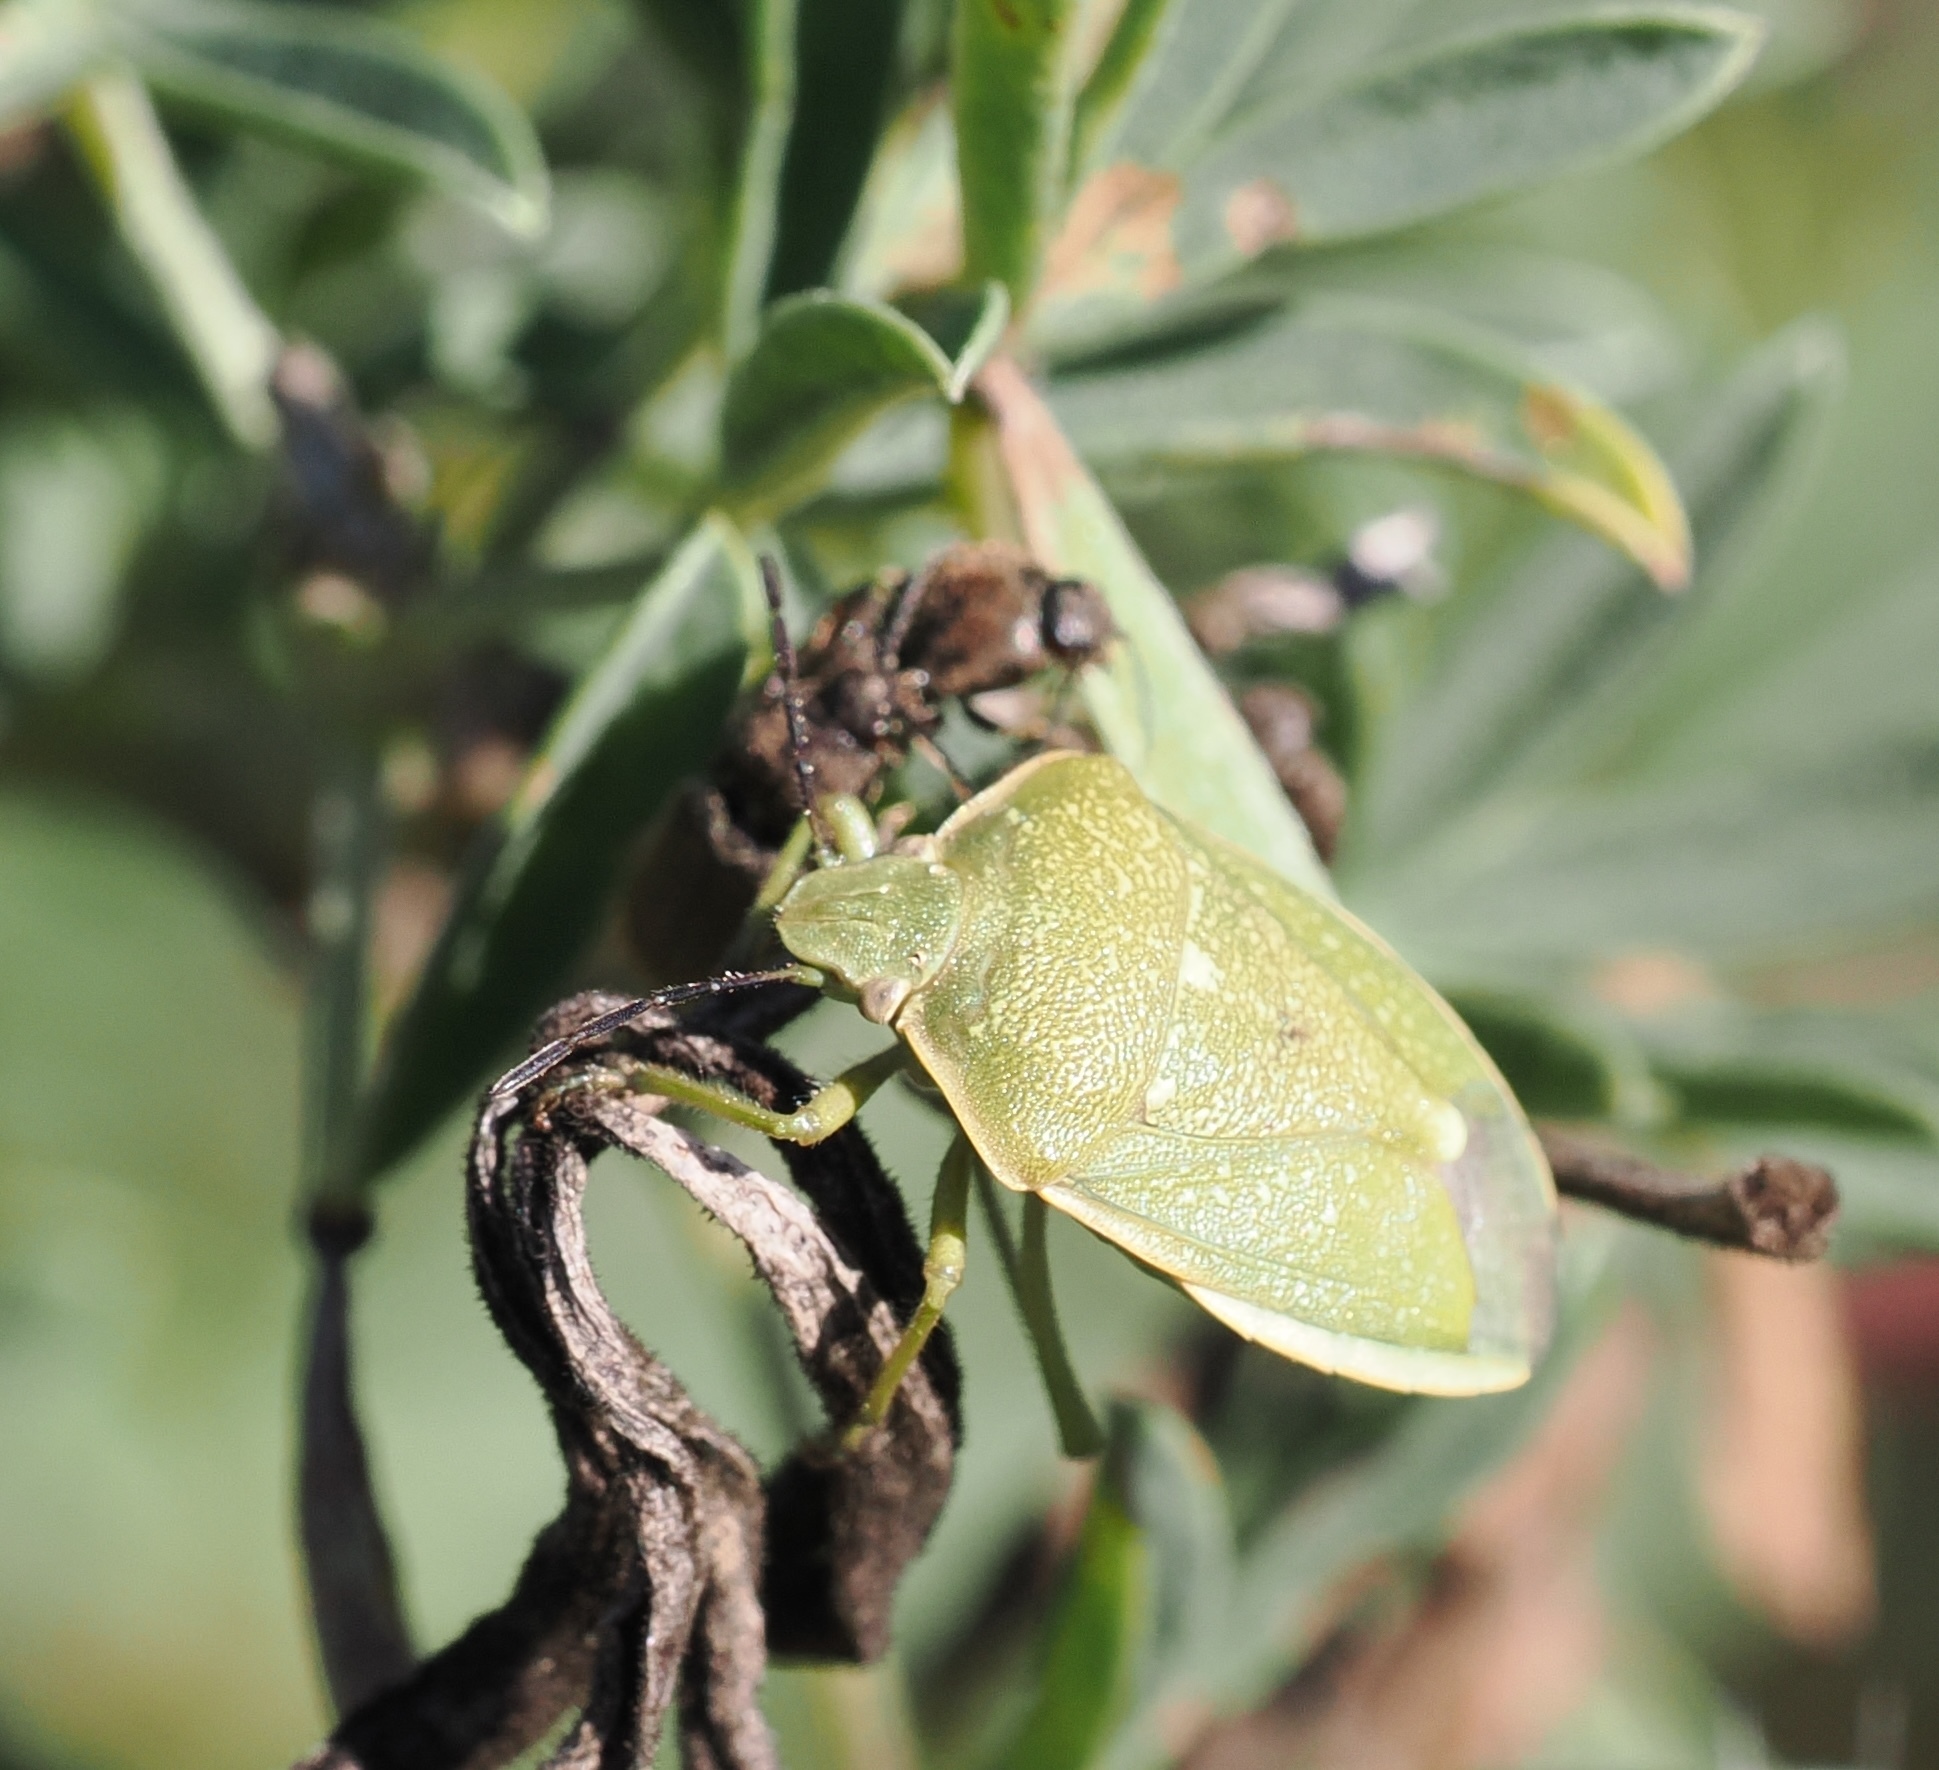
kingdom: Animalia
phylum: Arthropoda
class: Insecta
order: Hemiptera
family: Pentatomidae
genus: Chlorochroa
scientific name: Chlorochroa uhleri
